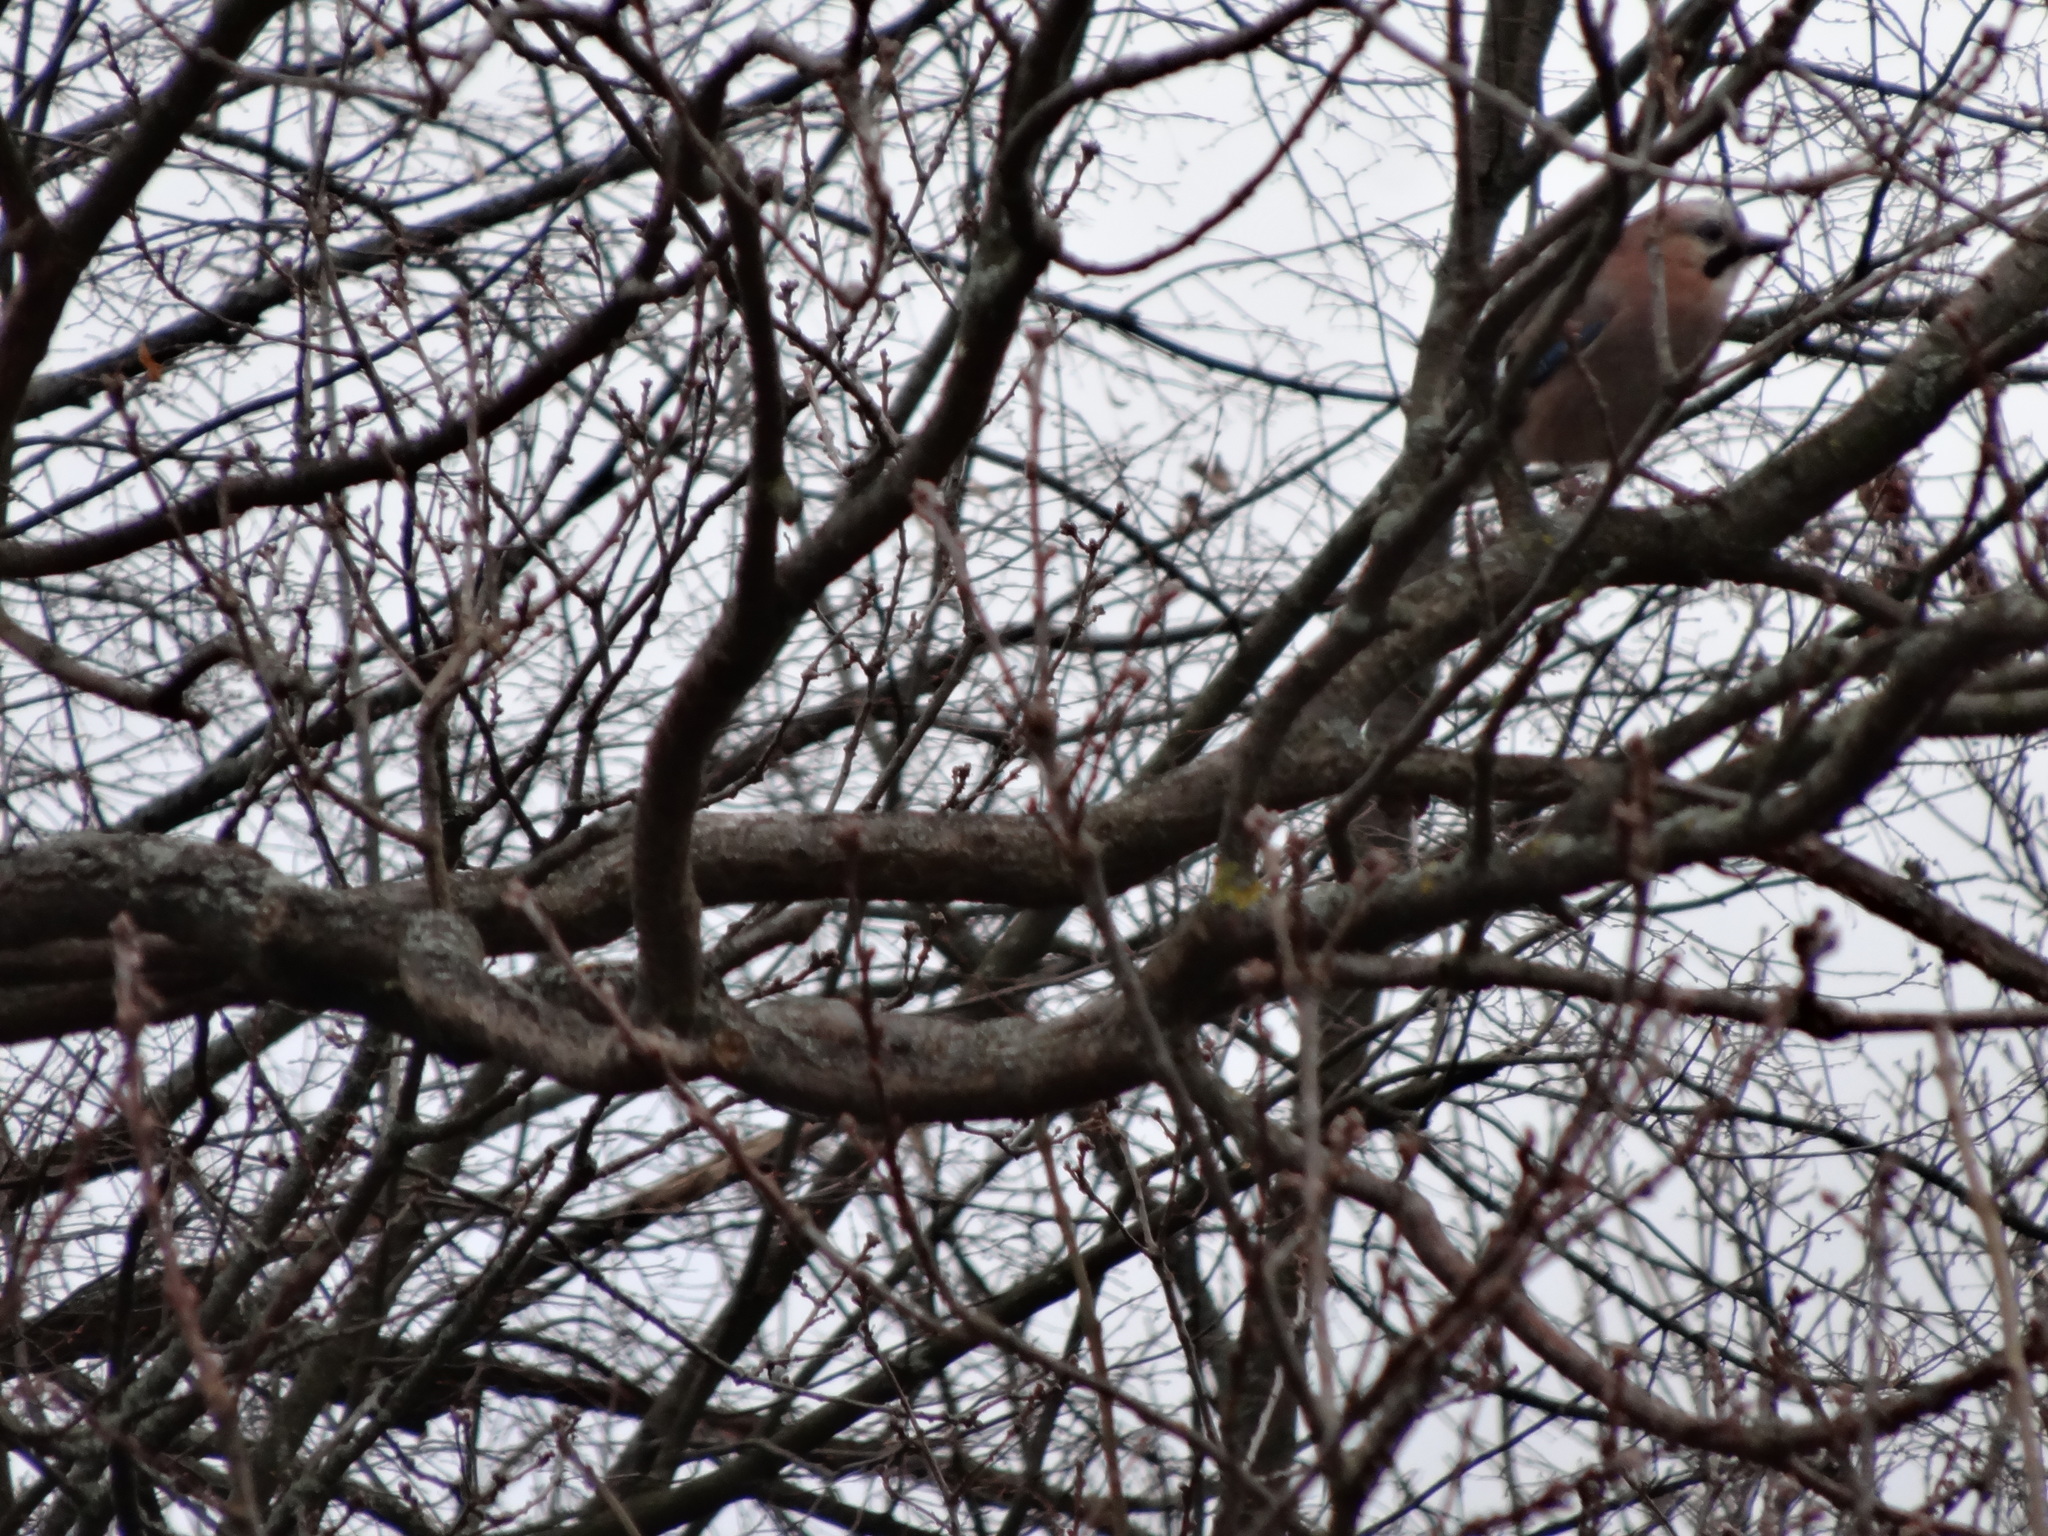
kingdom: Animalia
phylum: Chordata
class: Aves
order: Passeriformes
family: Corvidae
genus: Garrulus
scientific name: Garrulus glandarius
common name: Eurasian jay
